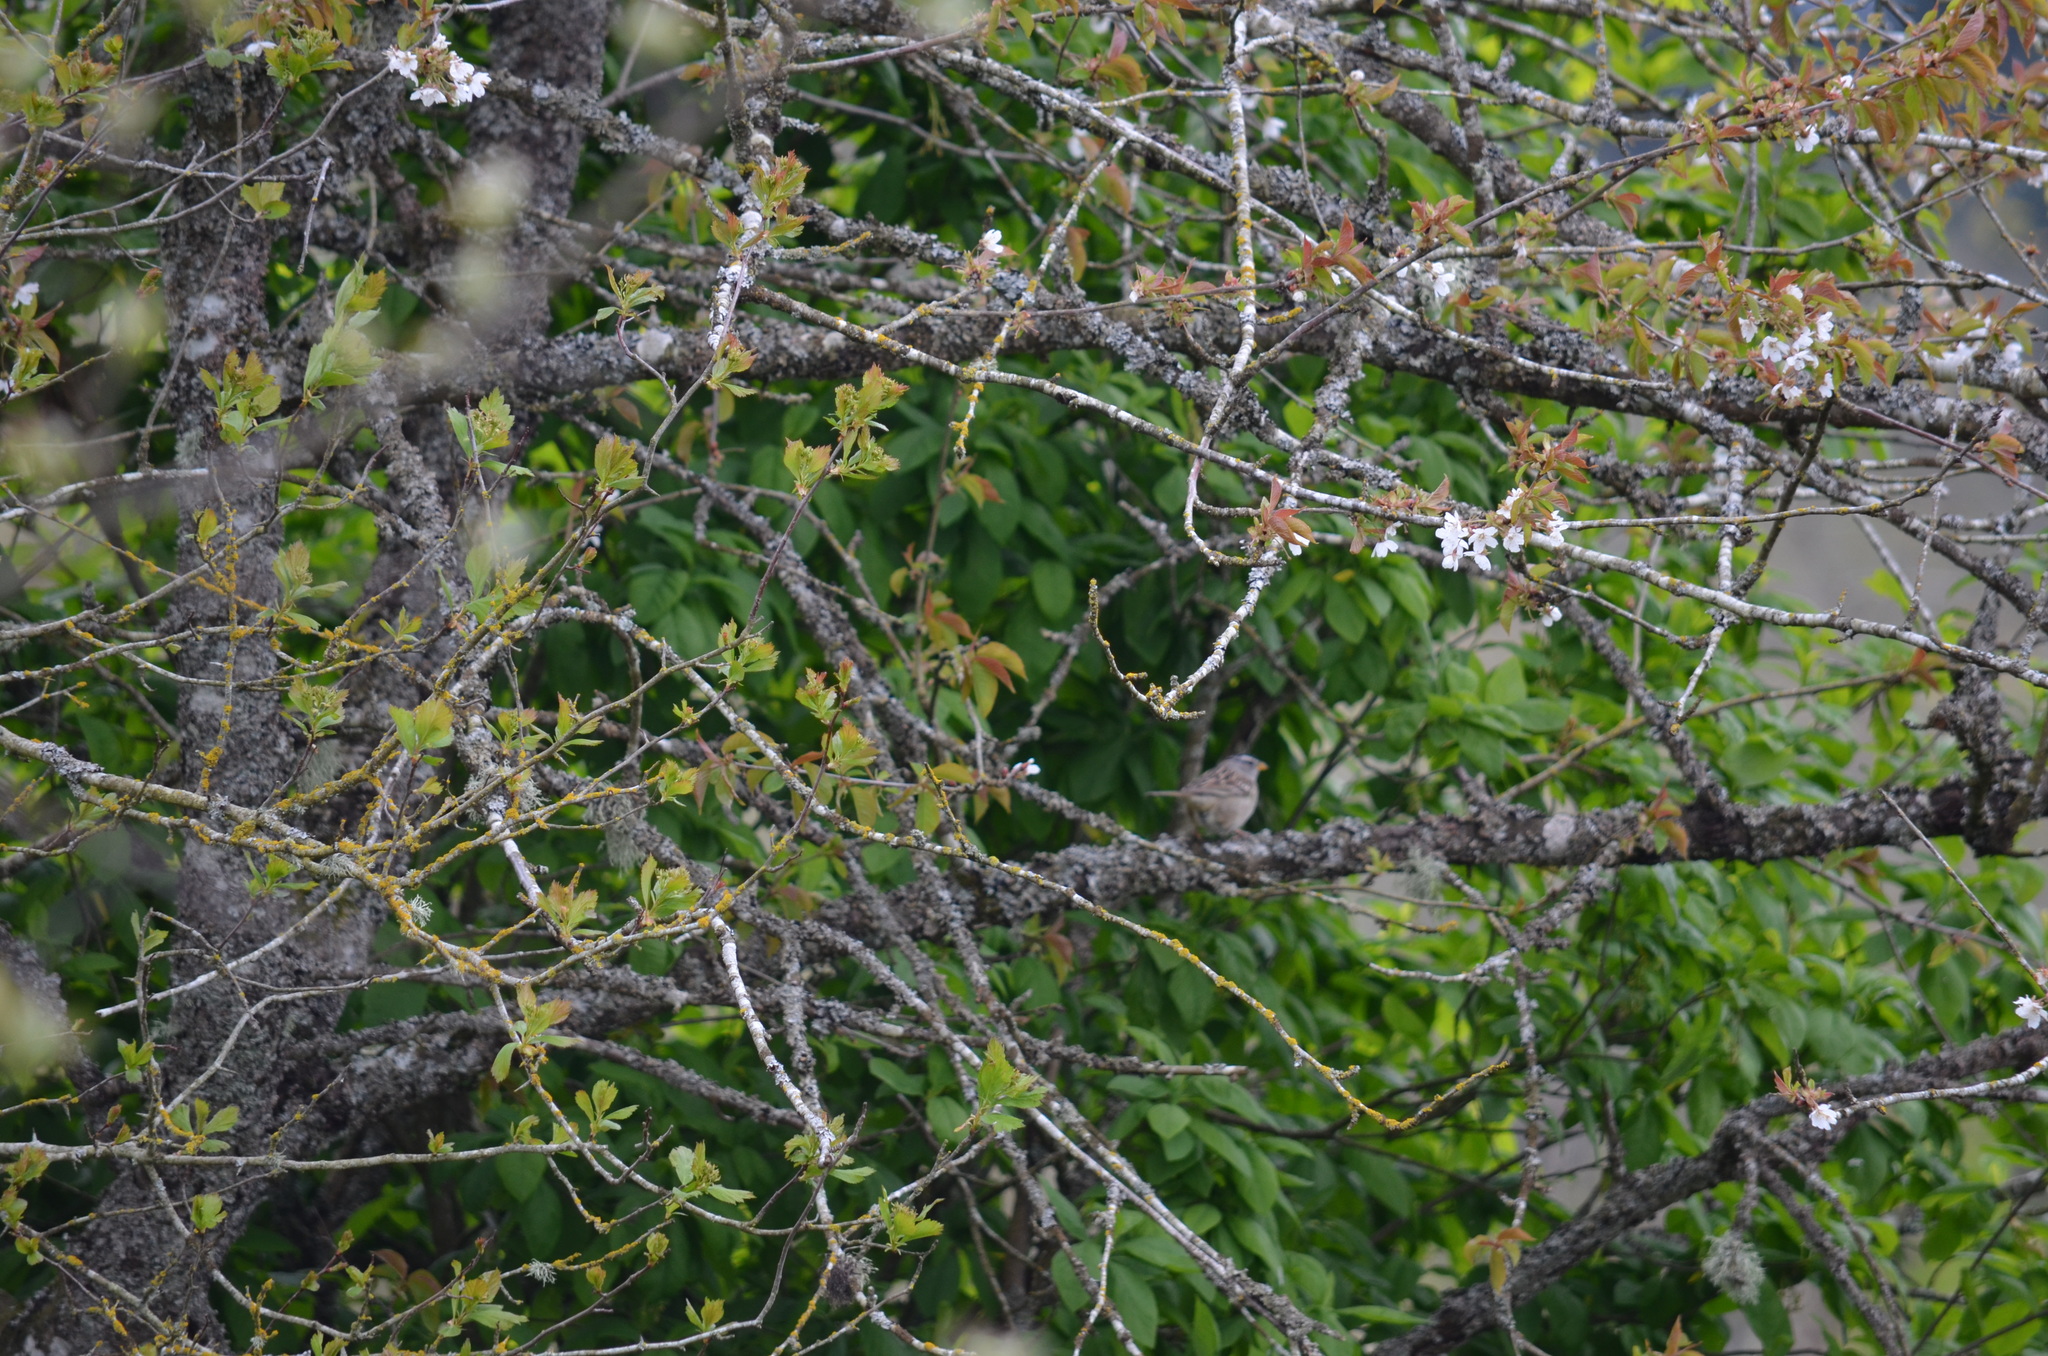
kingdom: Animalia
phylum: Chordata
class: Aves
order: Passeriformes
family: Passerellidae
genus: Zonotrichia
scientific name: Zonotrichia leucophrys
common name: White-crowned sparrow
